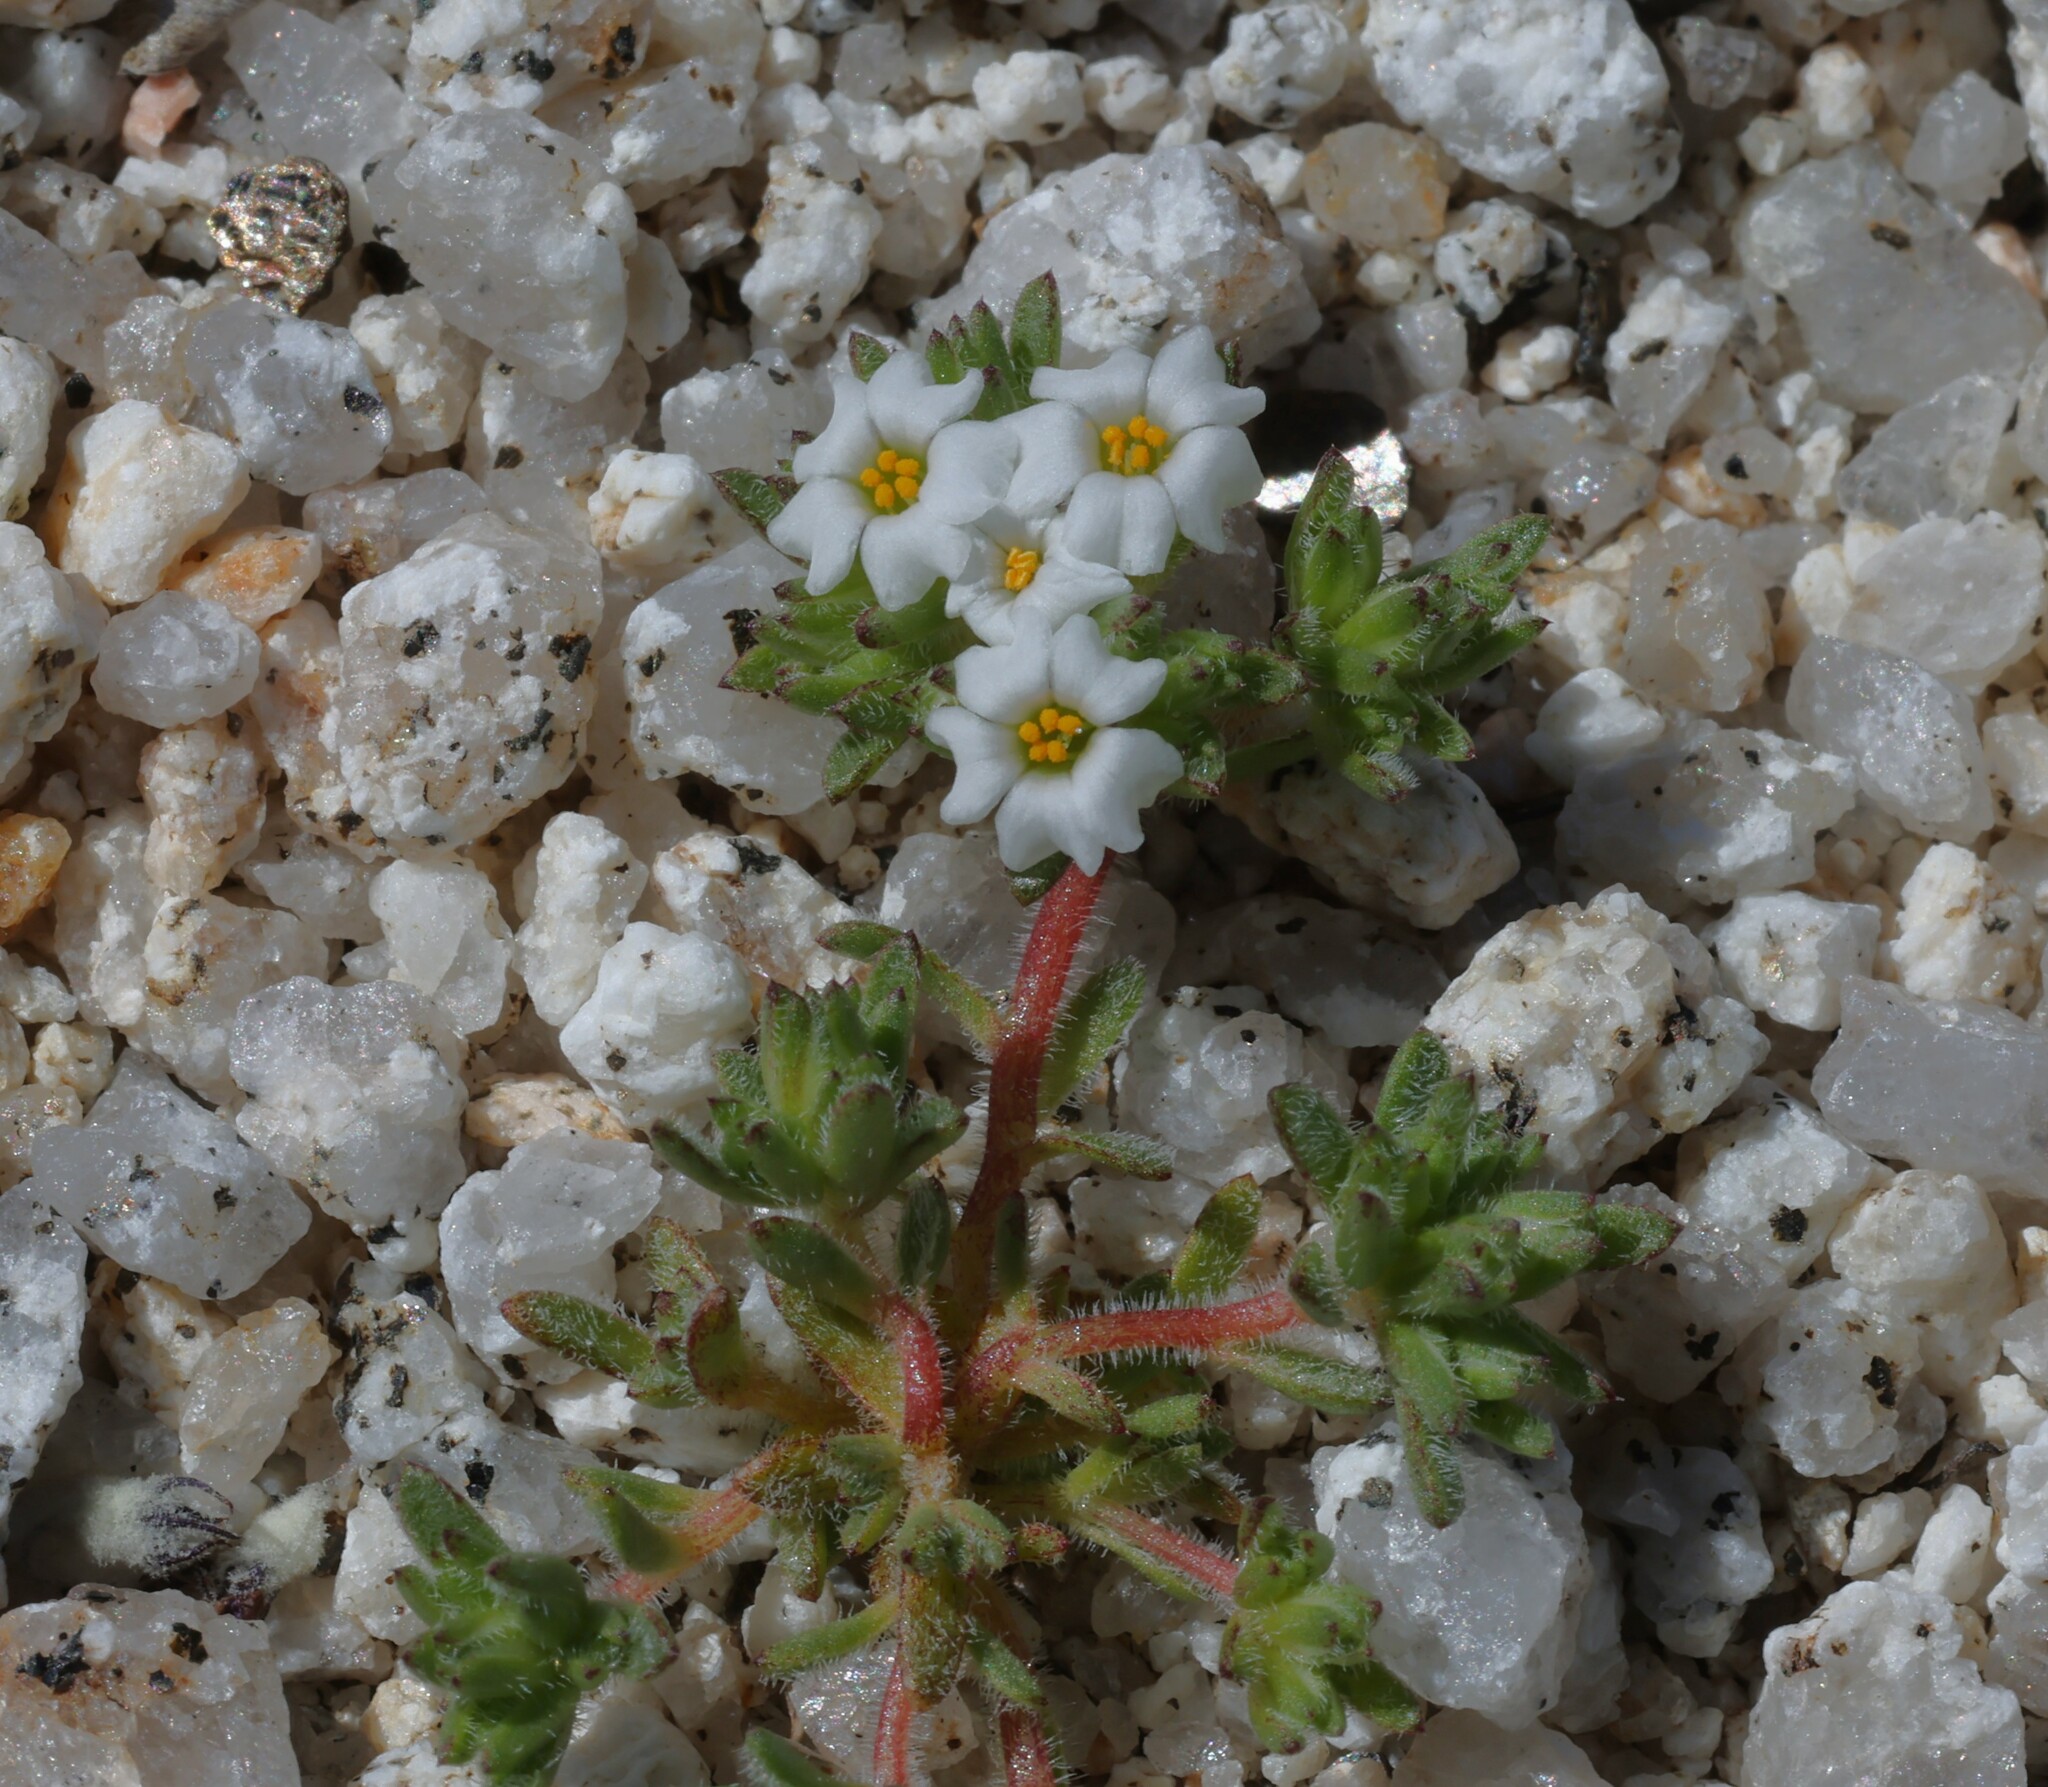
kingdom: Plantae
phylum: Tracheophyta
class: Magnoliopsida
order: Ericales
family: Polemoniaceae
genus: Maculigilia
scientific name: Maculigilia maculata
